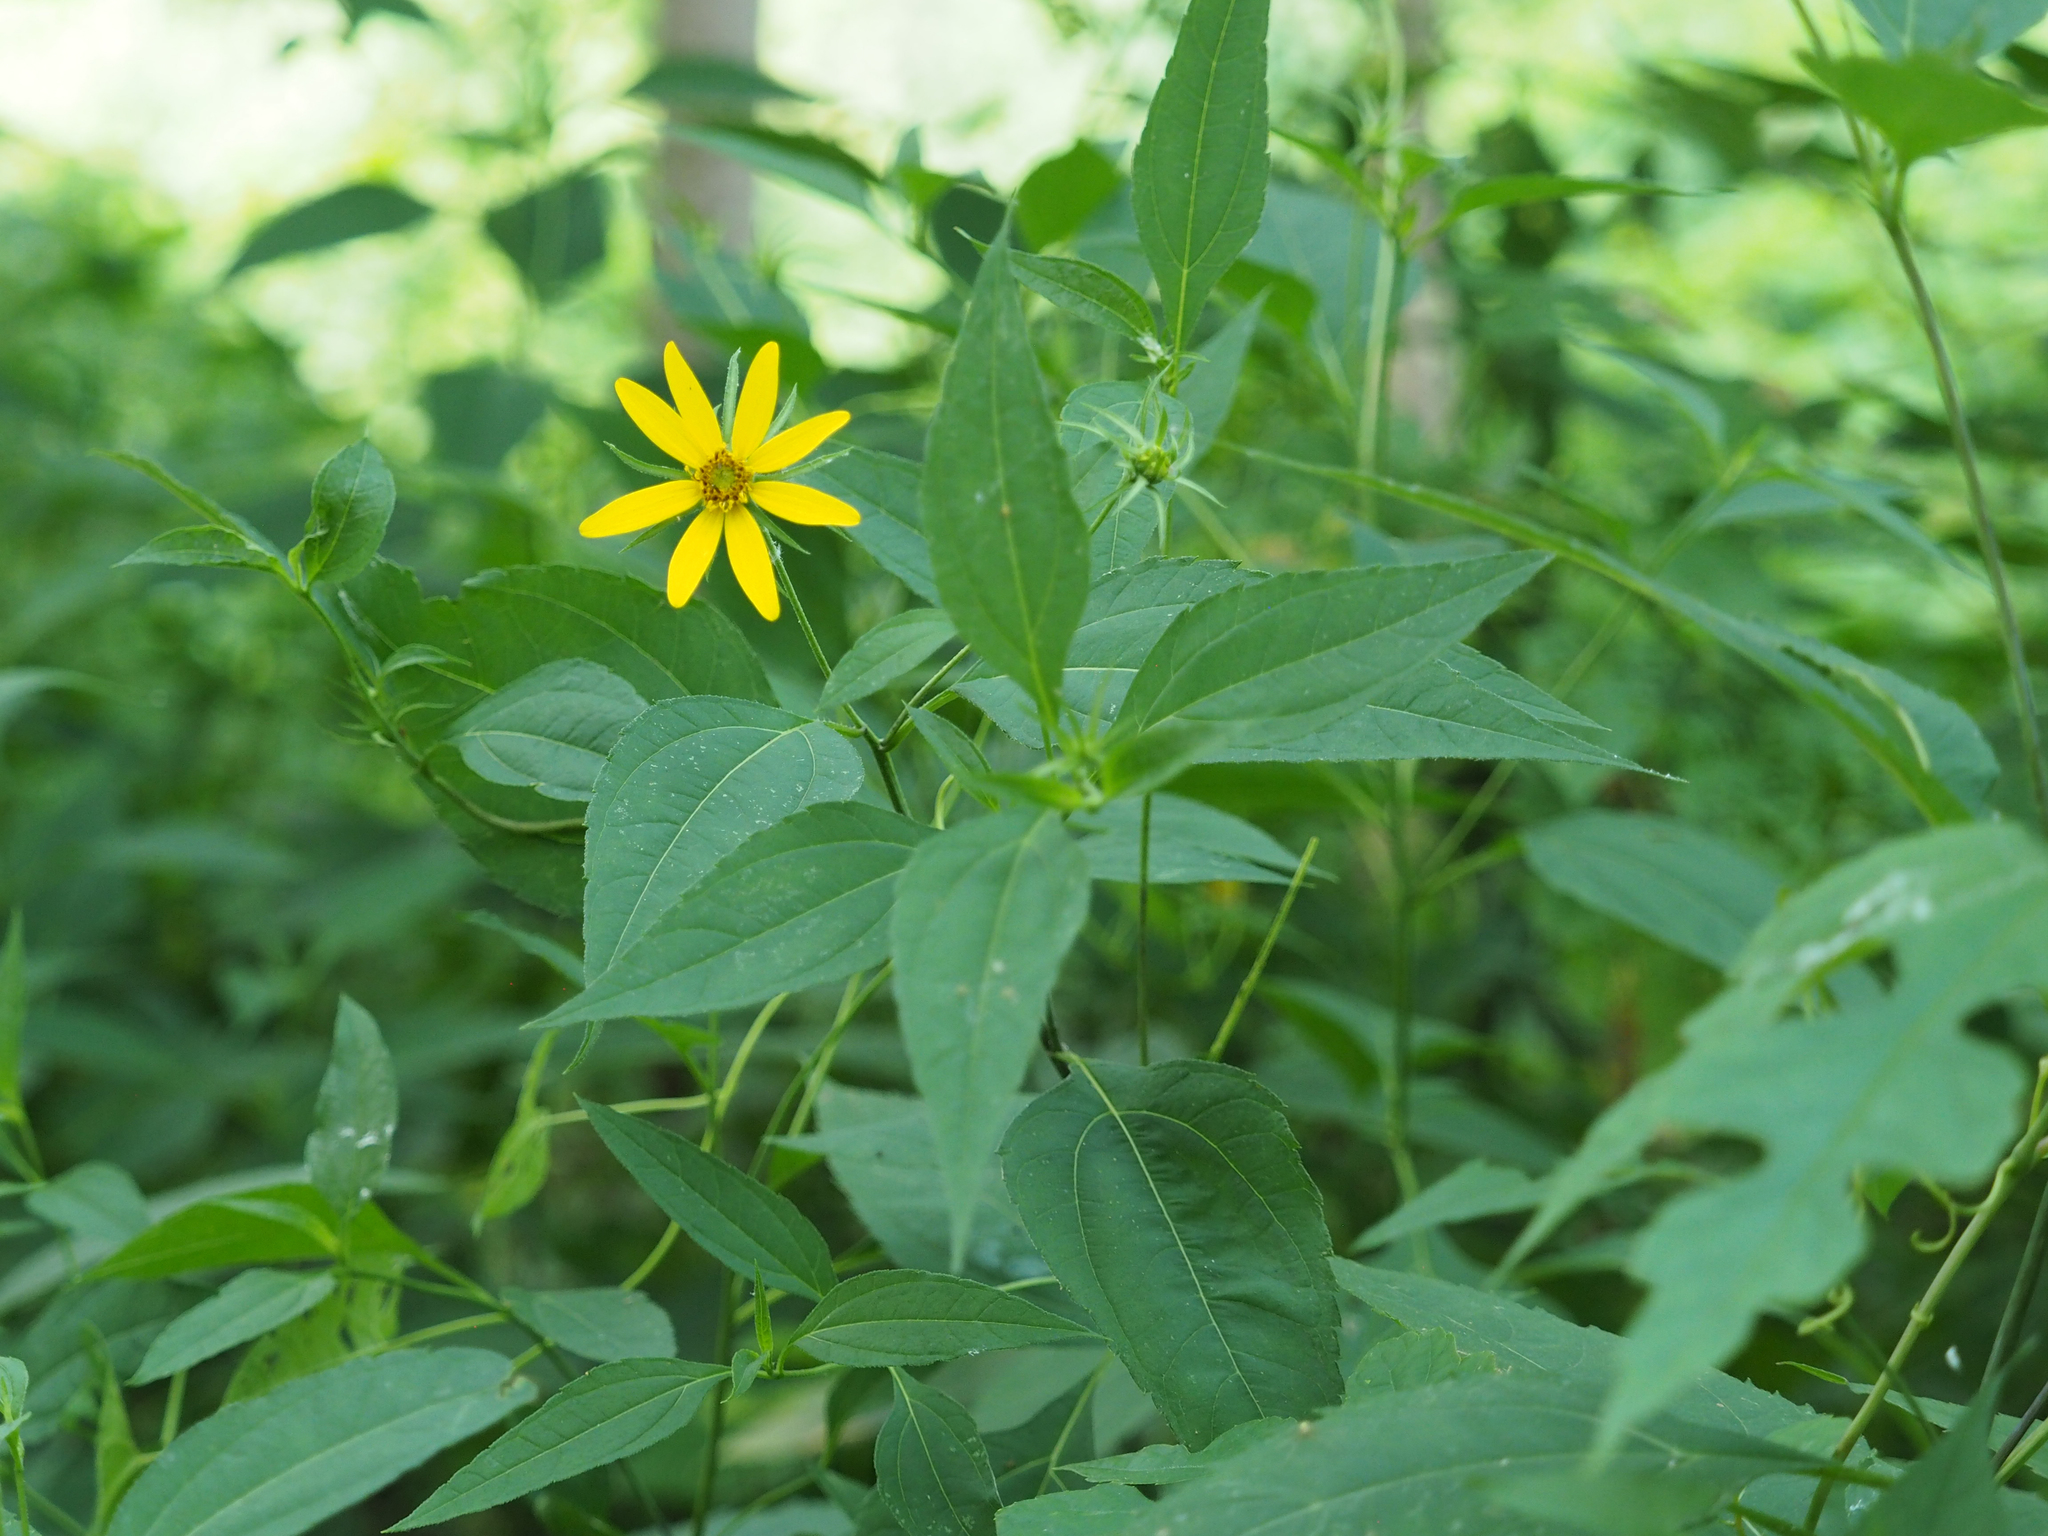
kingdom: Plantae
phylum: Tracheophyta
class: Magnoliopsida
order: Asterales
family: Asteraceae
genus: Helianthus
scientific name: Helianthus divaricatus
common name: Divergent sunflower
